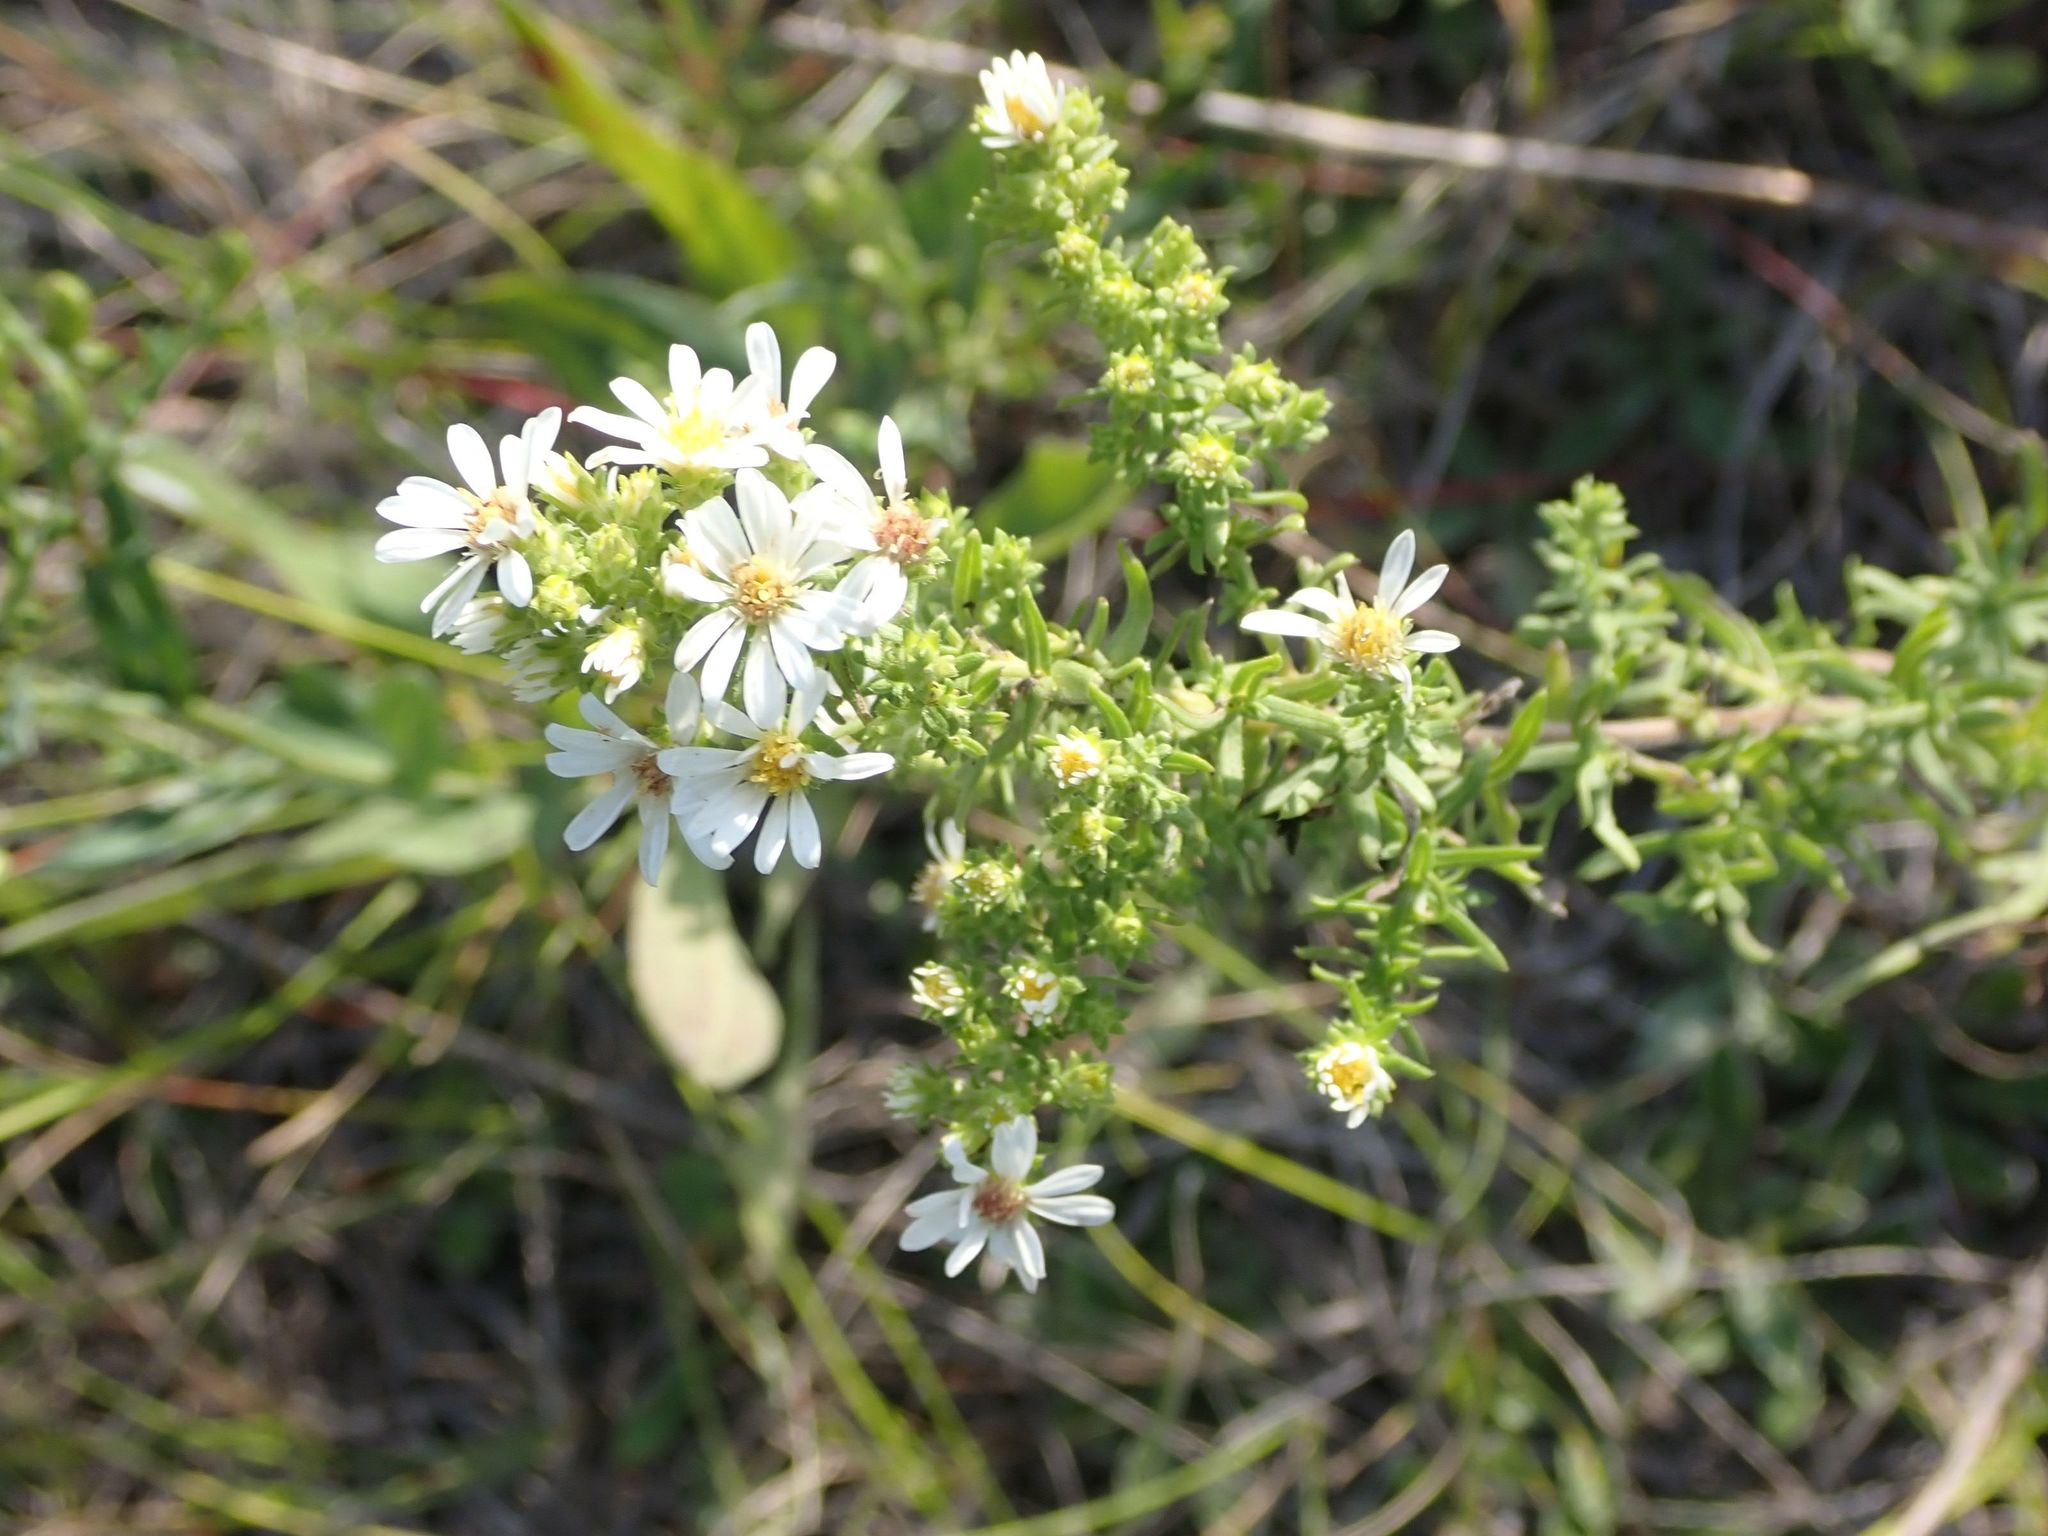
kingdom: Plantae
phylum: Tracheophyta
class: Magnoliopsida
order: Asterales
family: Asteraceae
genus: Symphyotrichum
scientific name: Symphyotrichum ericoides
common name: Heath aster
